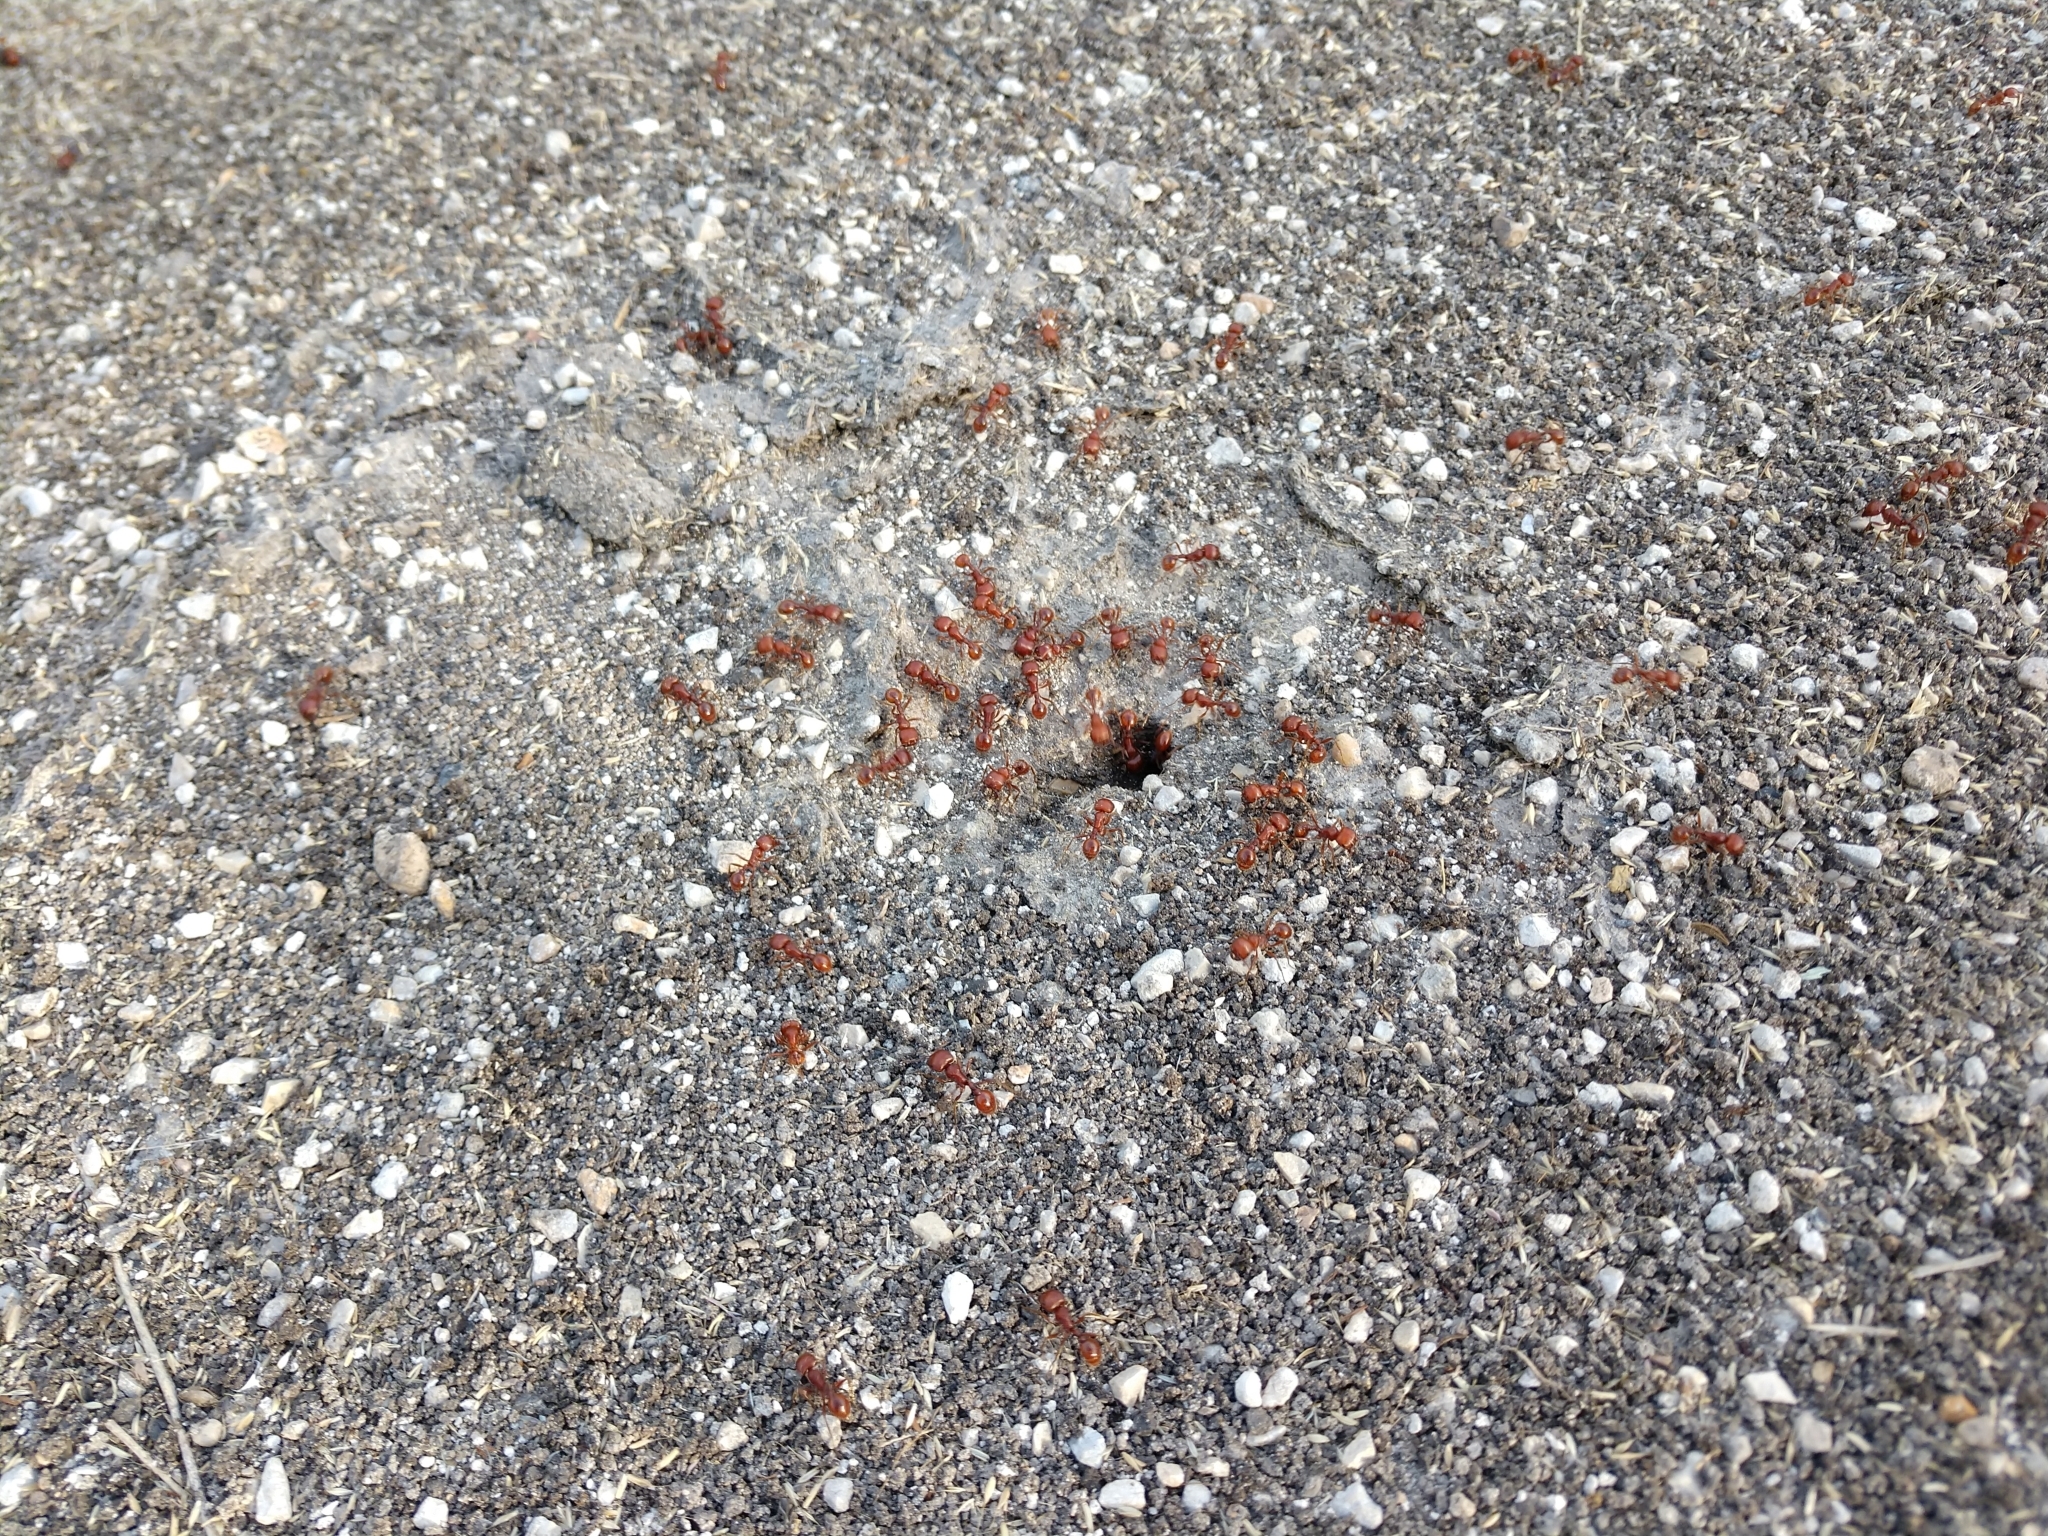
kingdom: Animalia
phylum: Arthropoda
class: Insecta
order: Hymenoptera
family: Formicidae
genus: Pogonomyrmex
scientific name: Pogonomyrmex barbatus
